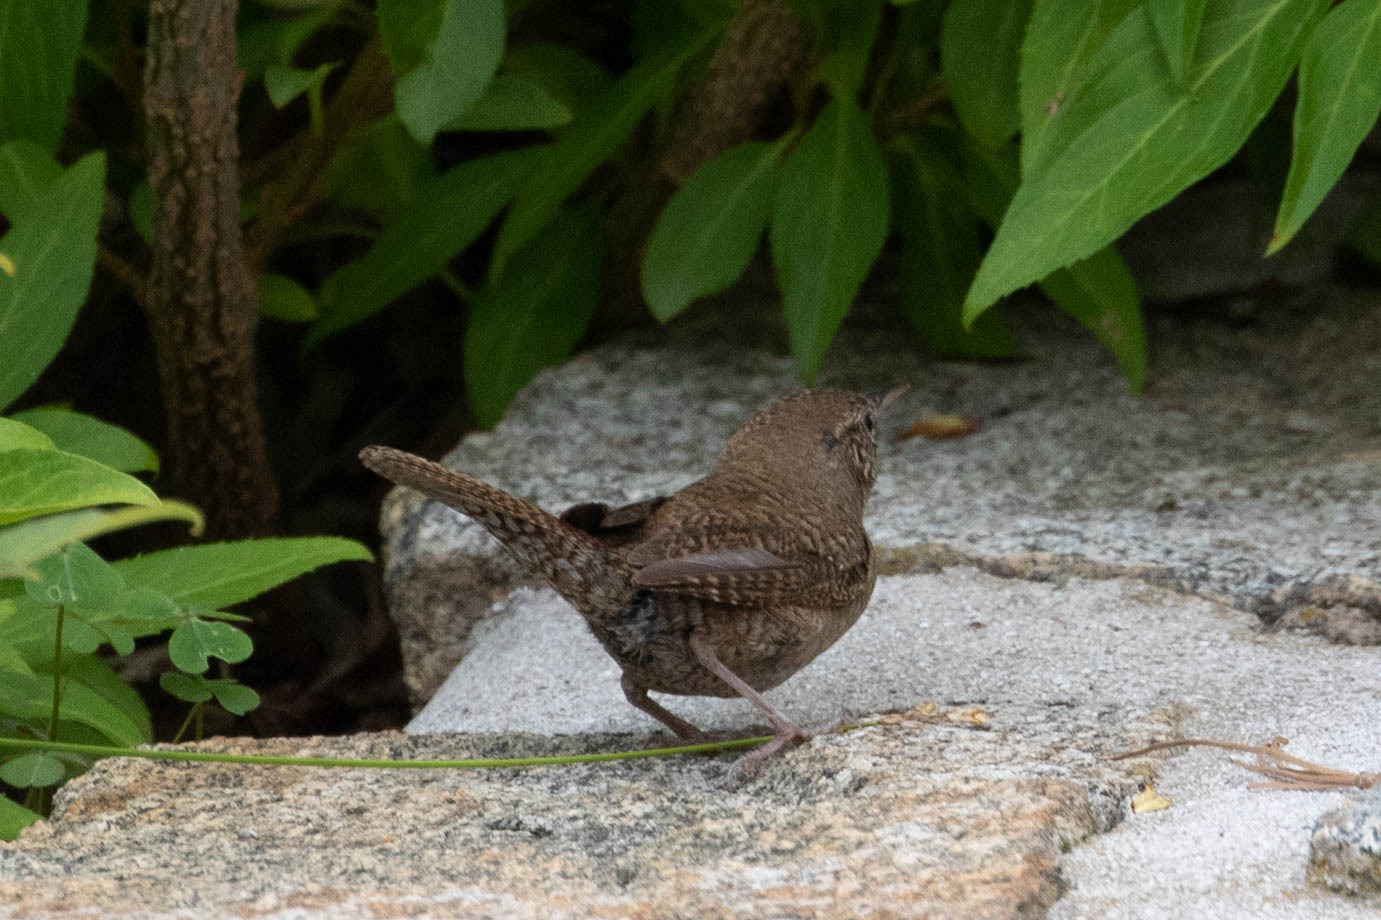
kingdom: Animalia
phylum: Chordata
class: Aves
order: Passeriformes
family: Troglodytidae
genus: Troglodytes
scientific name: Troglodytes aedon
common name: House wren
